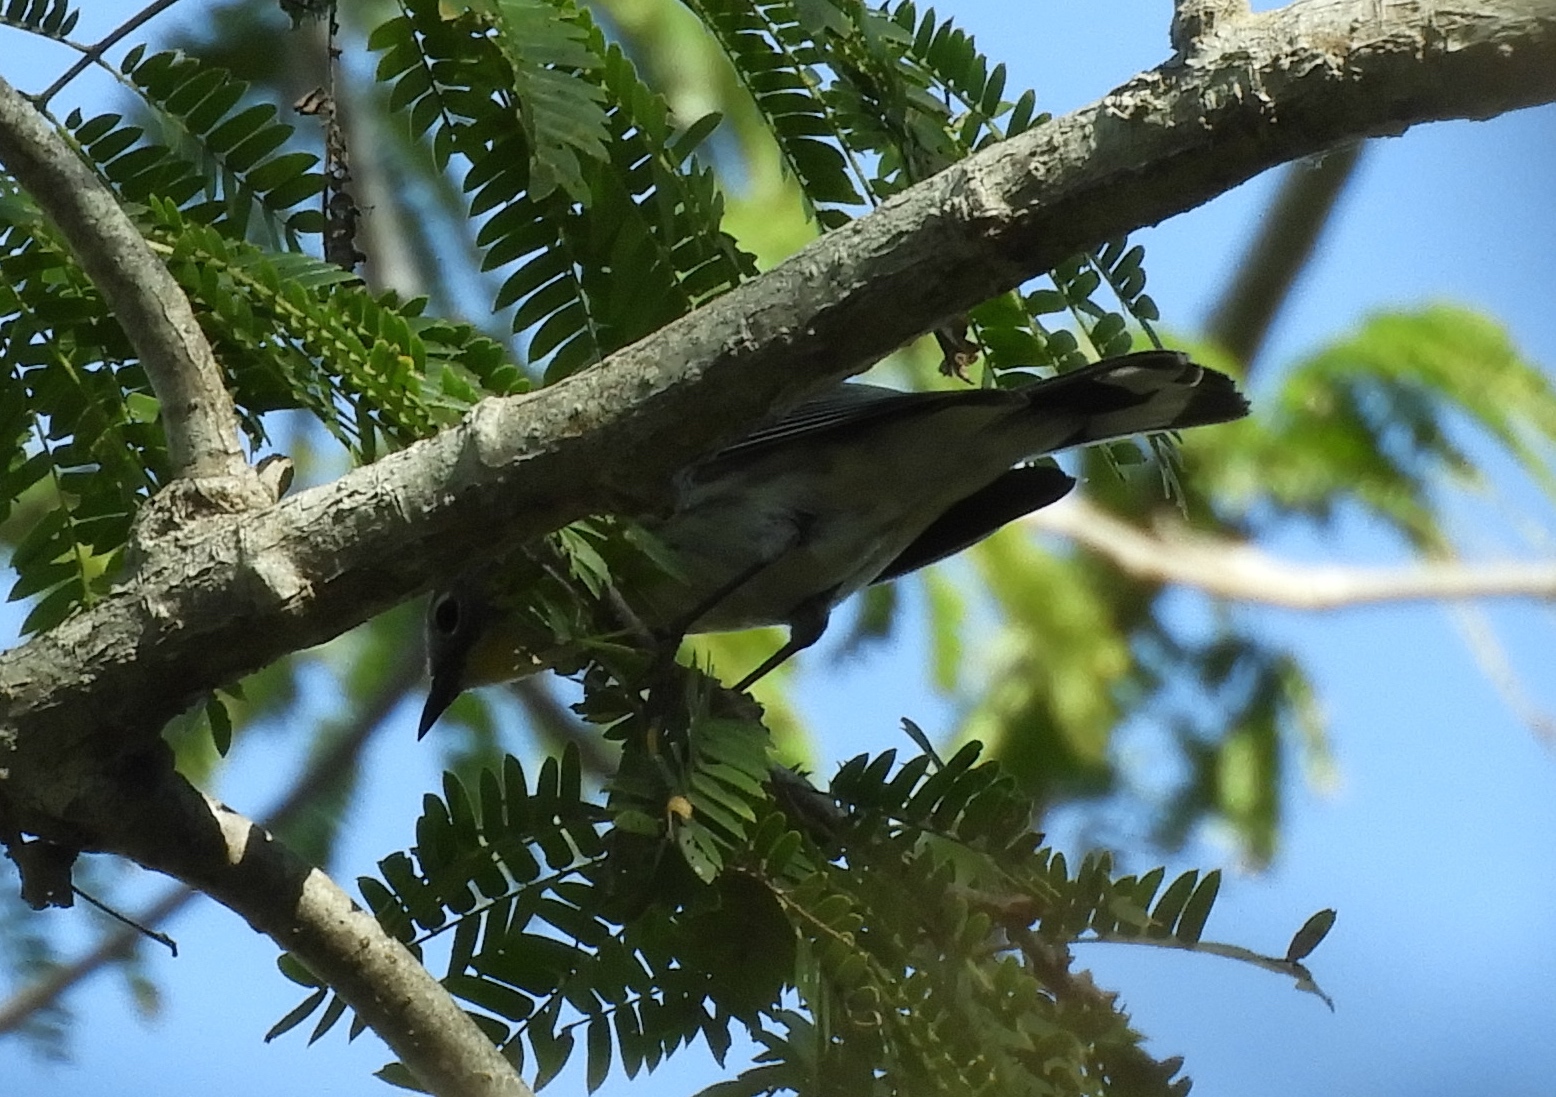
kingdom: Animalia
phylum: Chordata
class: Aves
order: Passeriformes
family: Parulidae
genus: Setophaga
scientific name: Setophaga coronata
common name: Myrtle warbler
